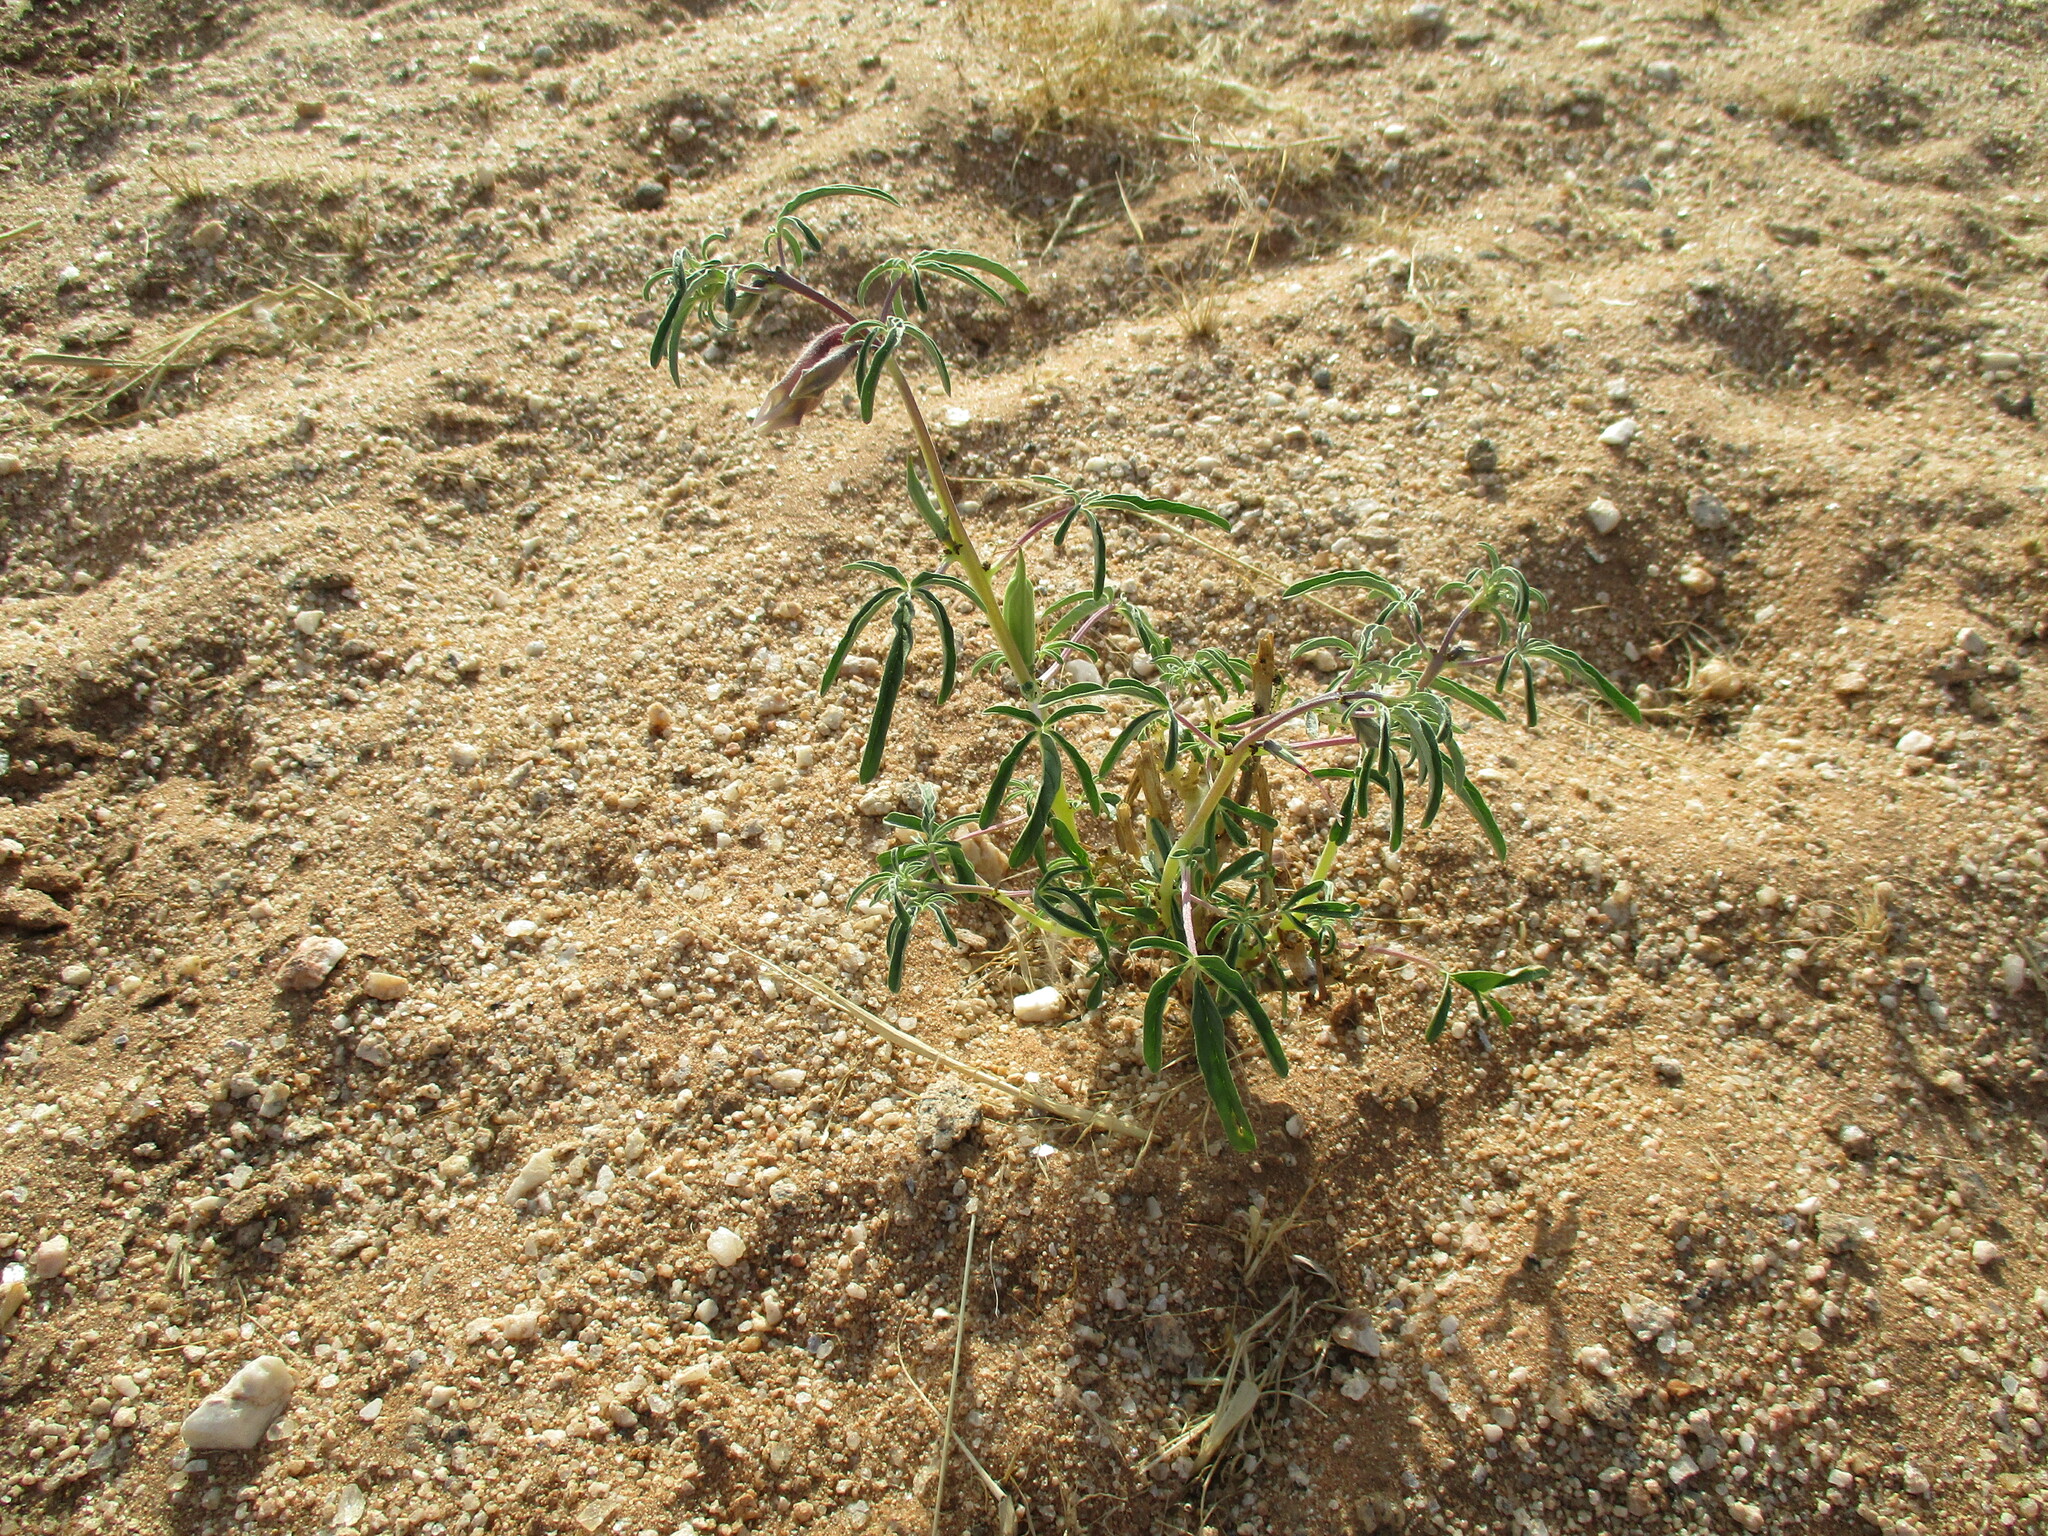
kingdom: Plantae
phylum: Tracheophyta
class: Magnoliopsida
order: Lamiales
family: Pedaliaceae
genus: Sesamum
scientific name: Sesamum triphyllum
